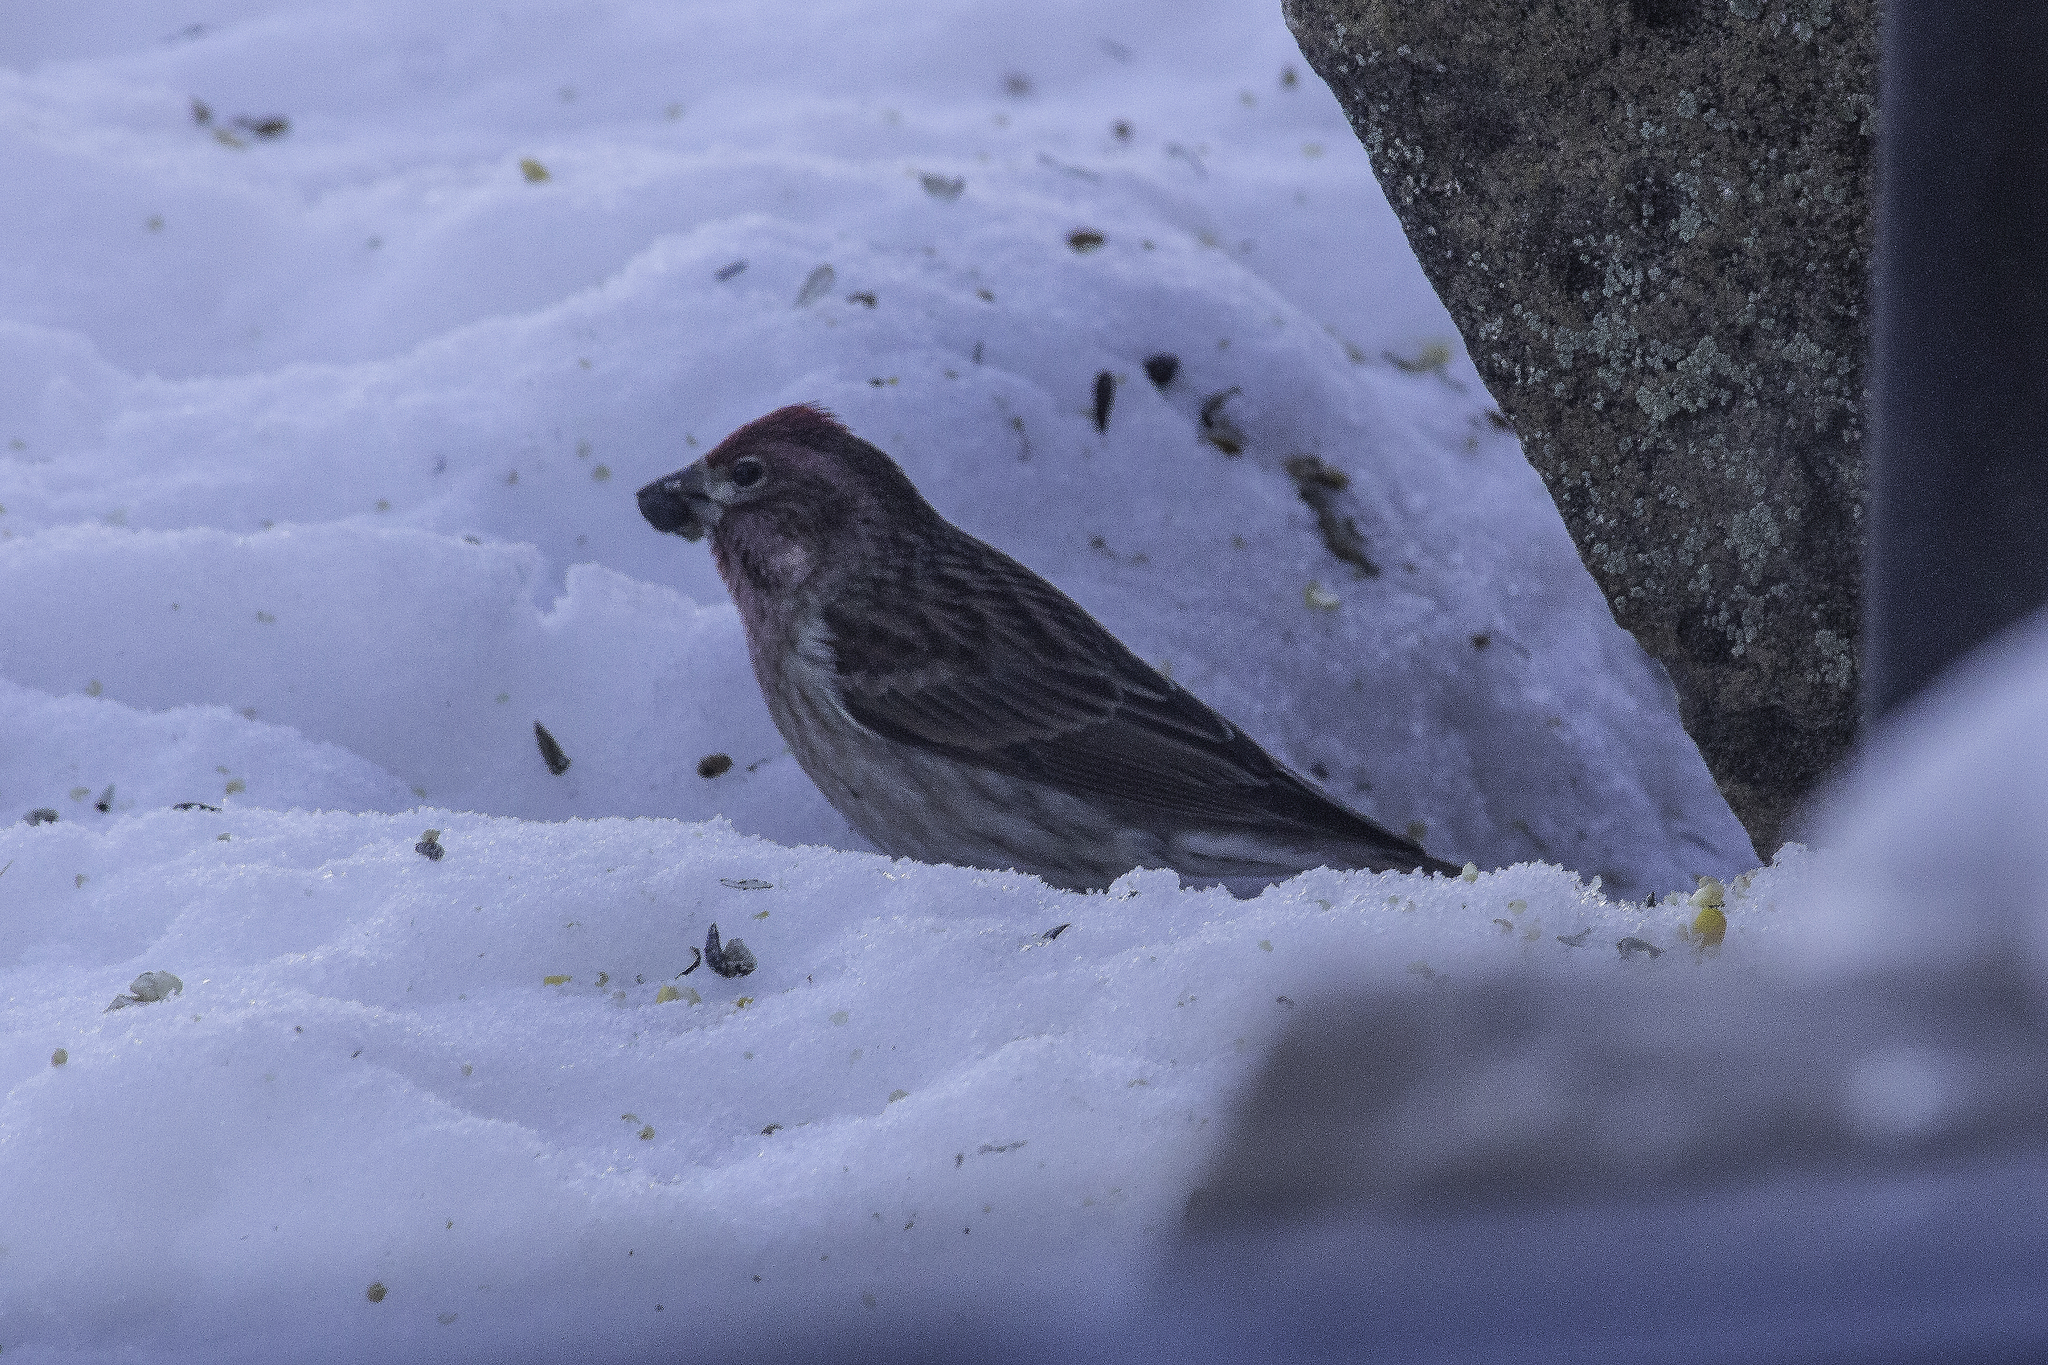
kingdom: Animalia
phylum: Chordata
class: Aves
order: Passeriformes
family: Fringillidae
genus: Haemorhous
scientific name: Haemorhous cassinii
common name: Cassin's finch
